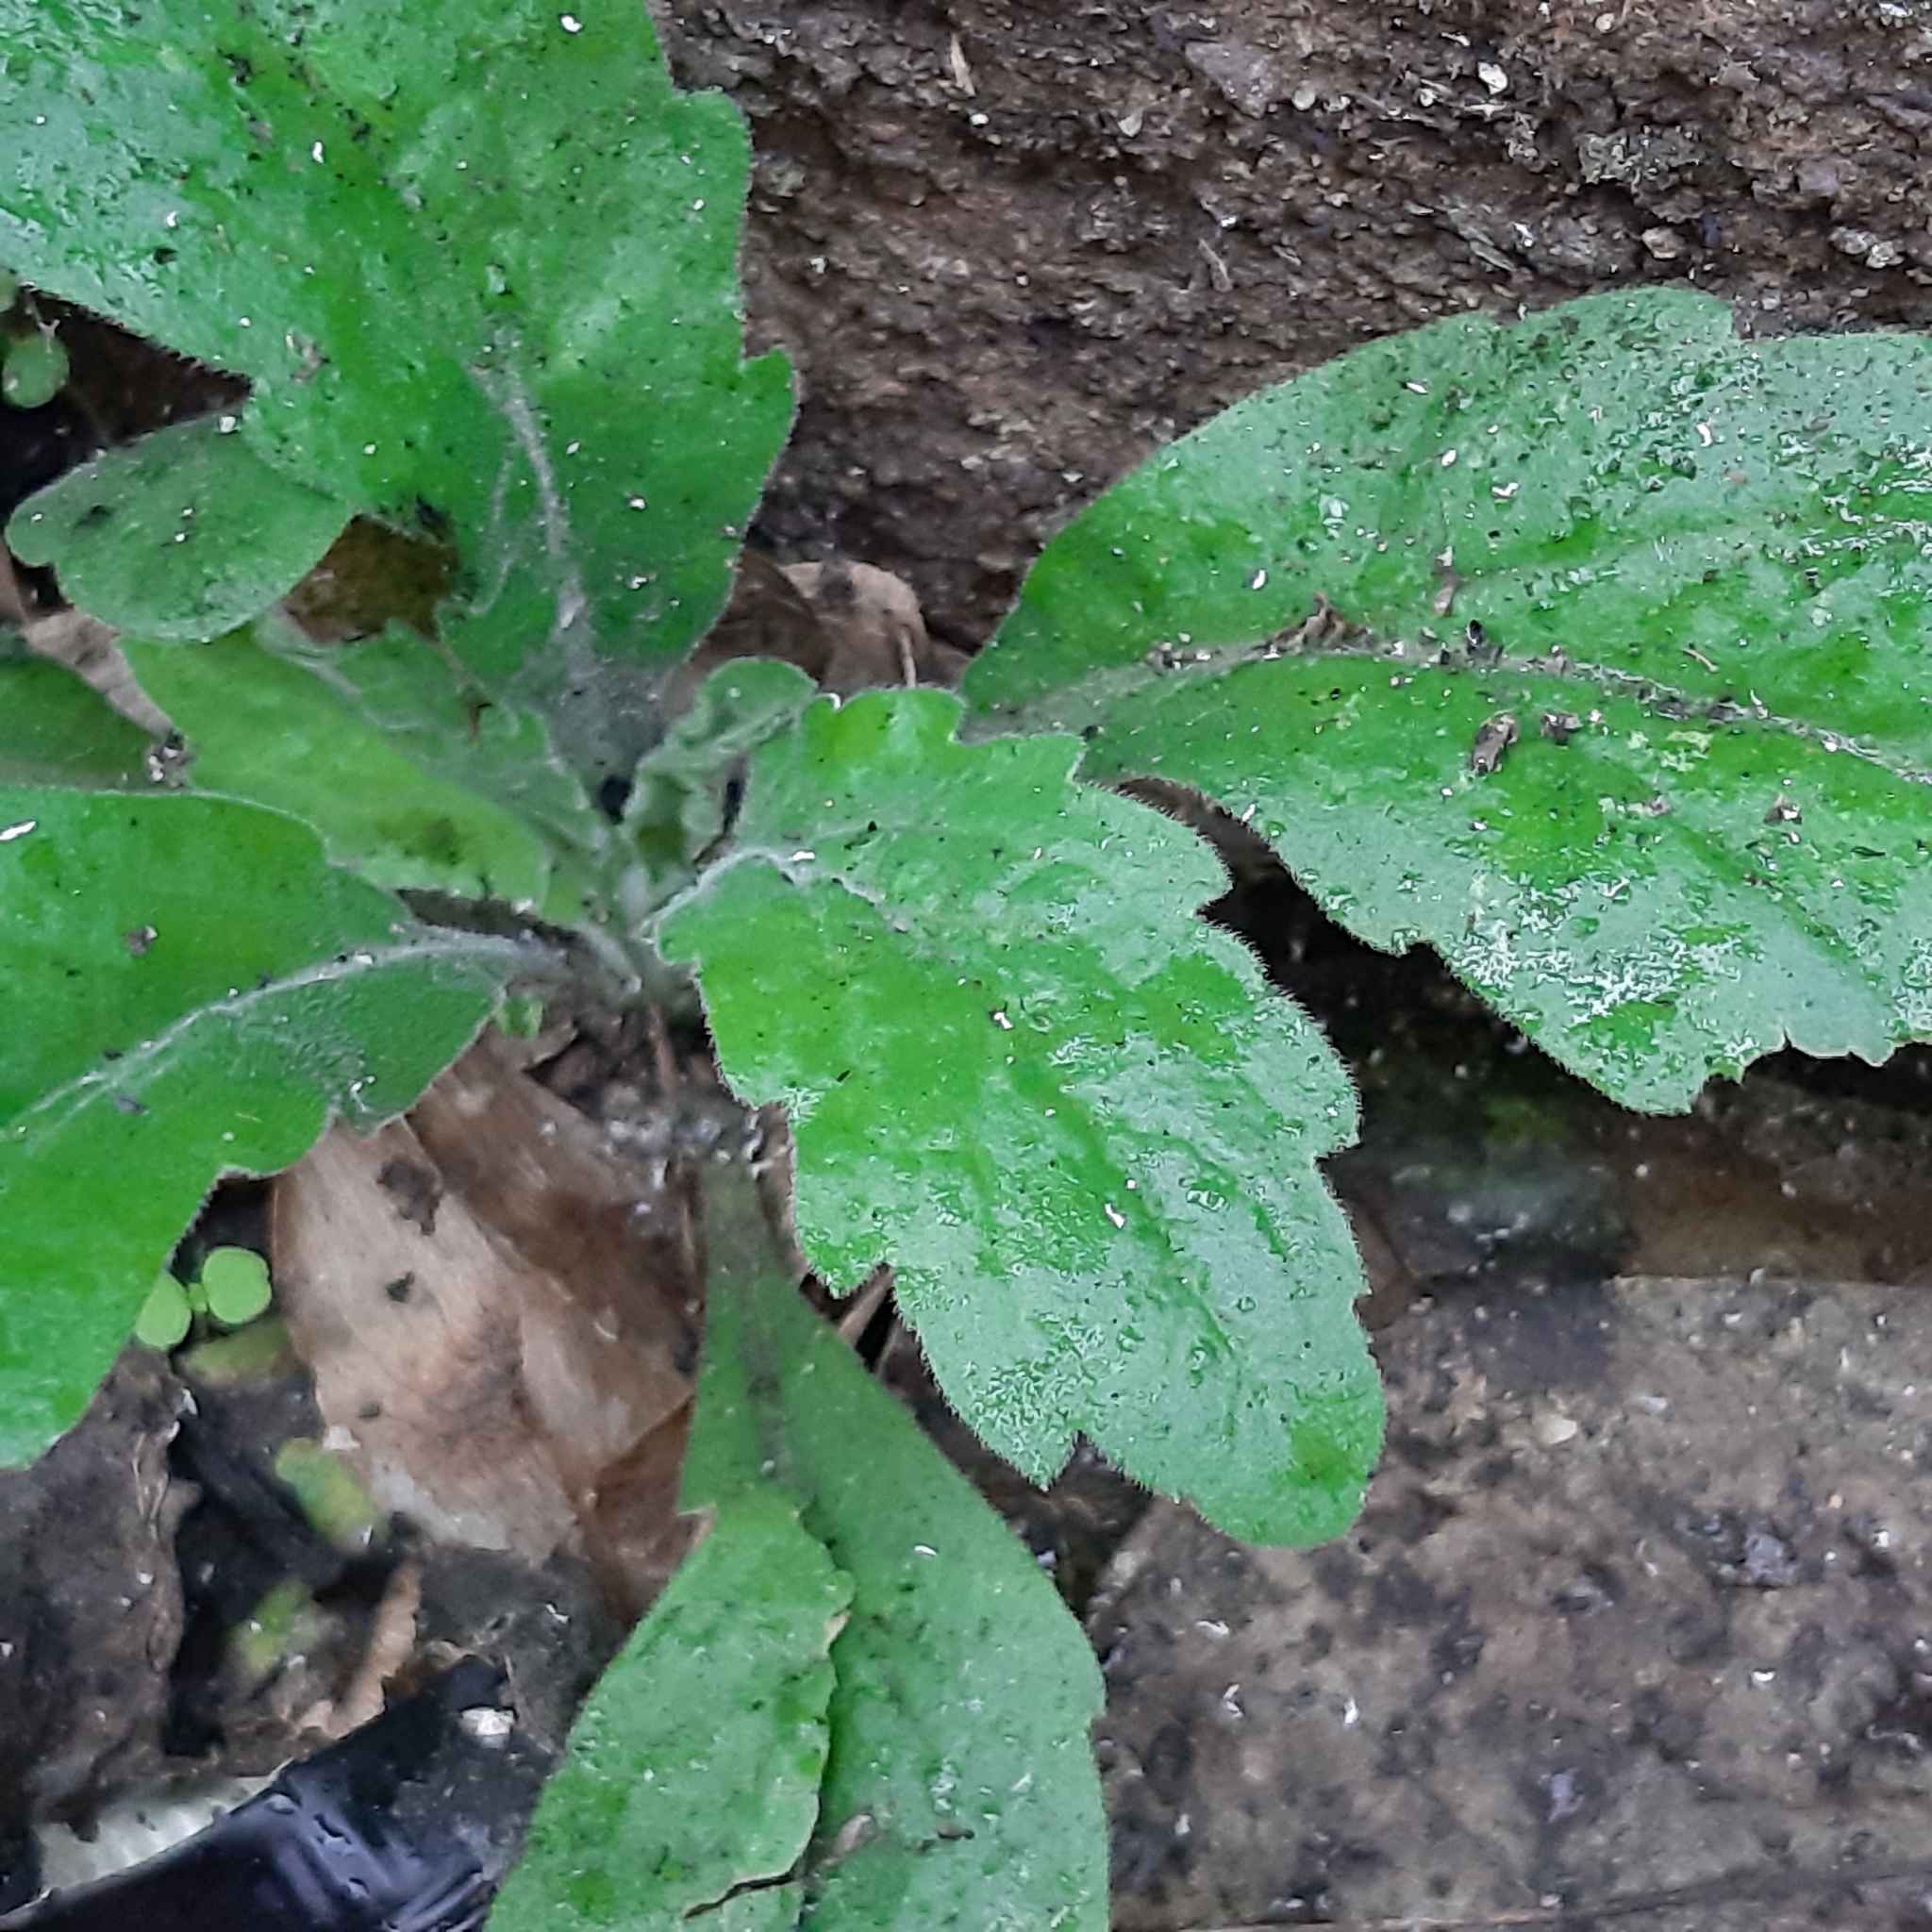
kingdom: Plantae
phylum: Tracheophyta
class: Magnoliopsida
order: Asterales
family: Asteraceae
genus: Erigeron
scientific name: Erigeron sumatrensis
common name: Daisy
